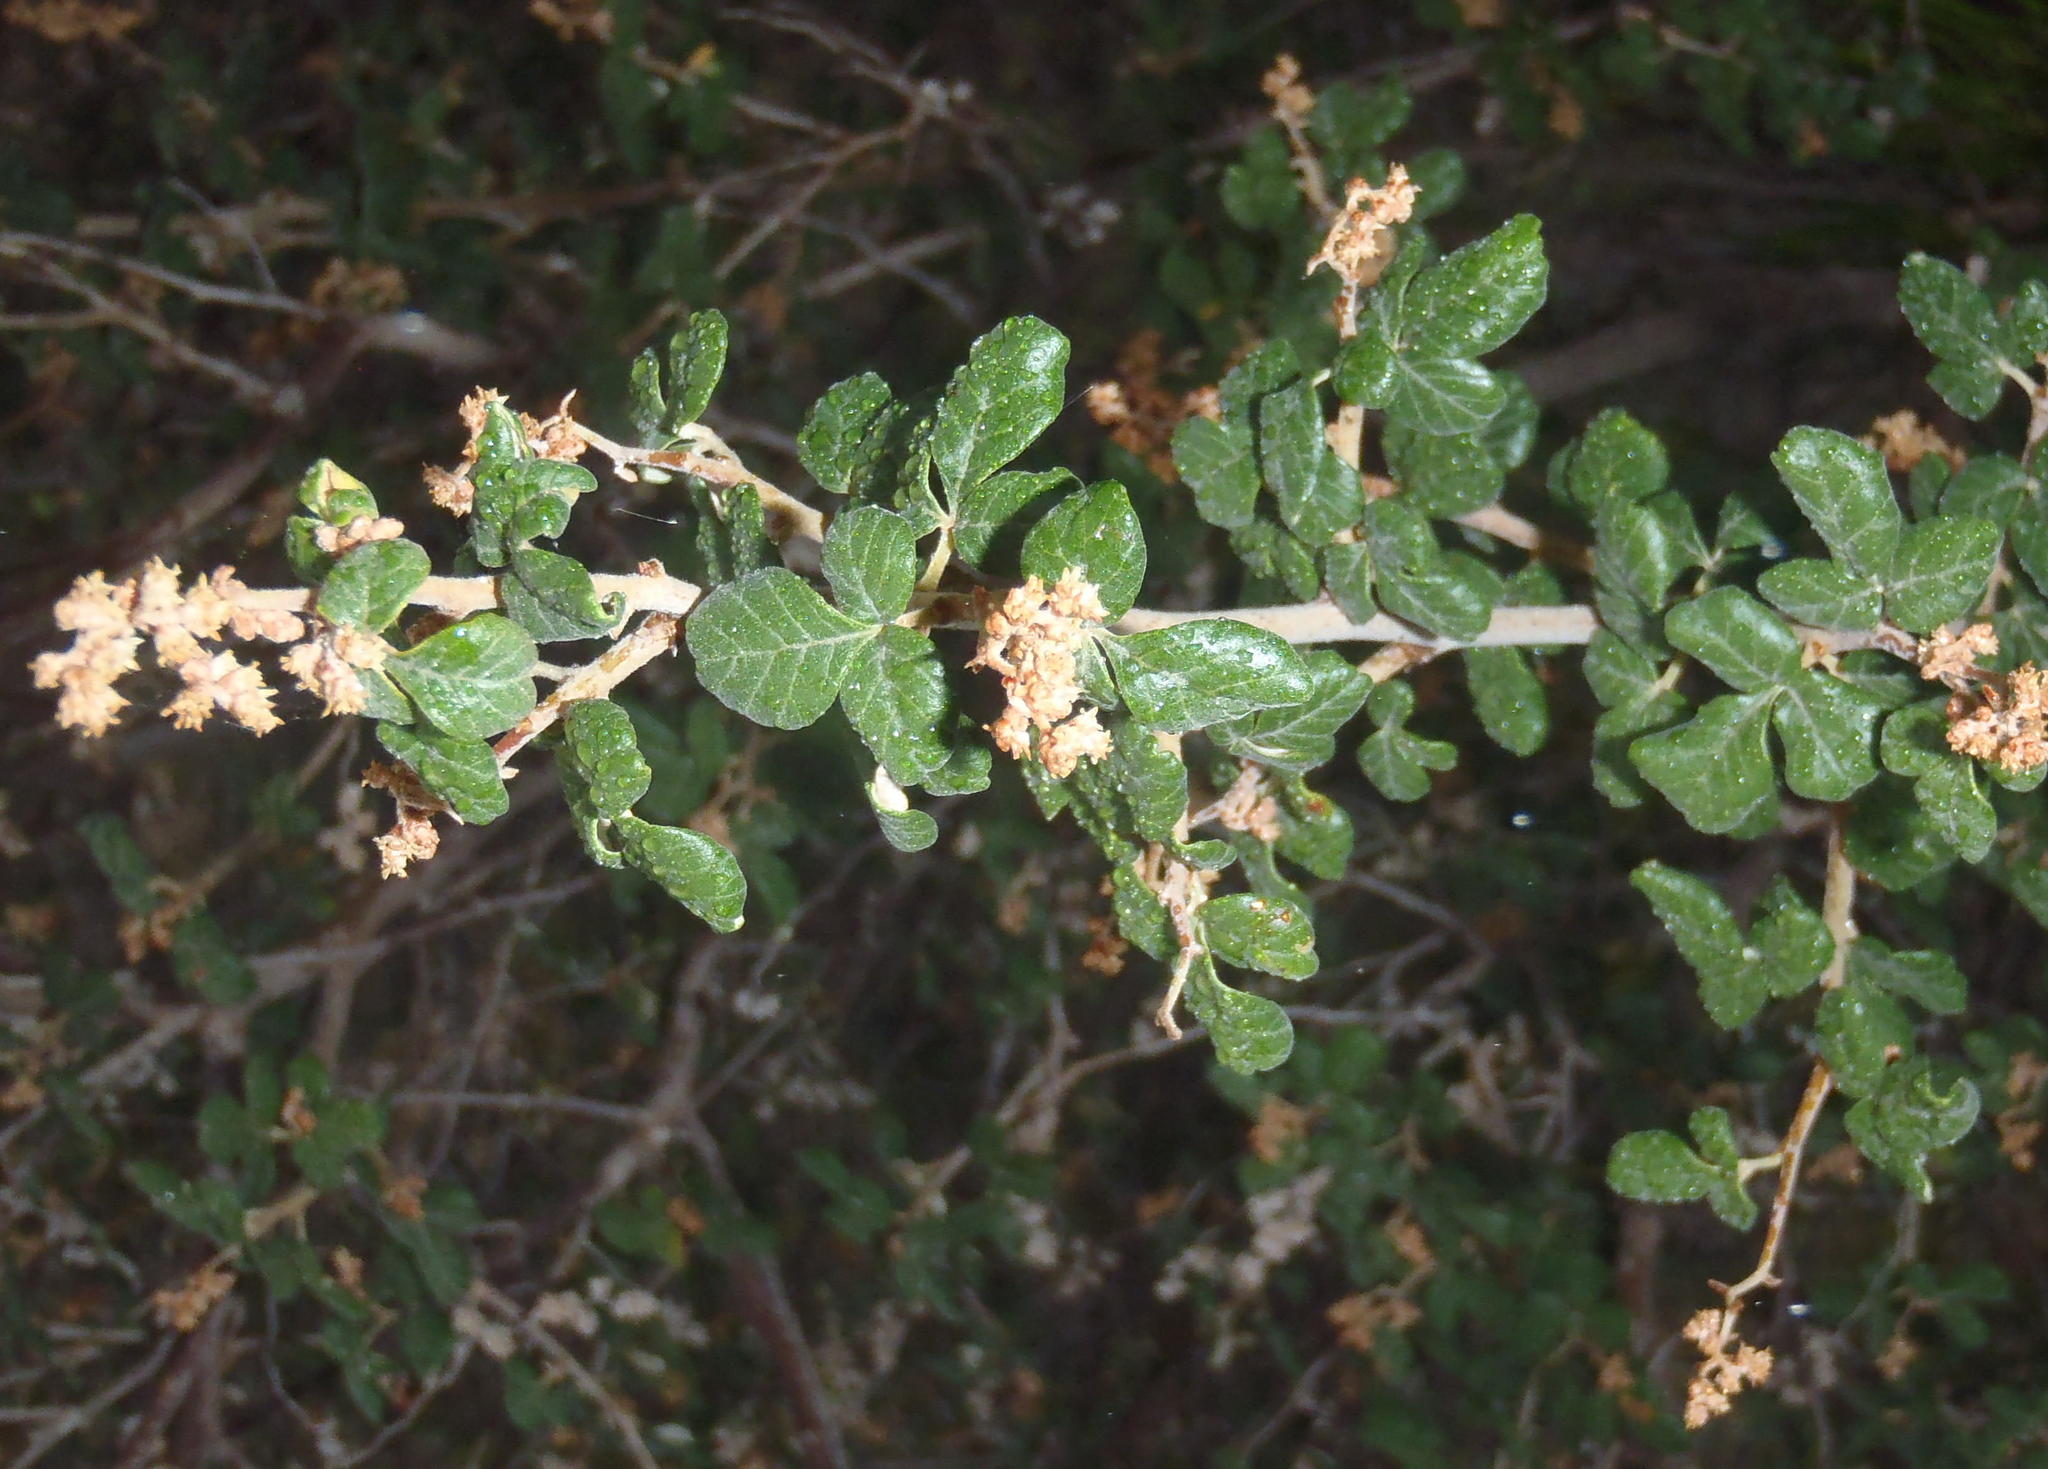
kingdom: Plantae
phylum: Tracheophyta
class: Magnoliopsida
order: Sapindales
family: Anacardiaceae
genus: Searsia
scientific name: Searsia incisa
